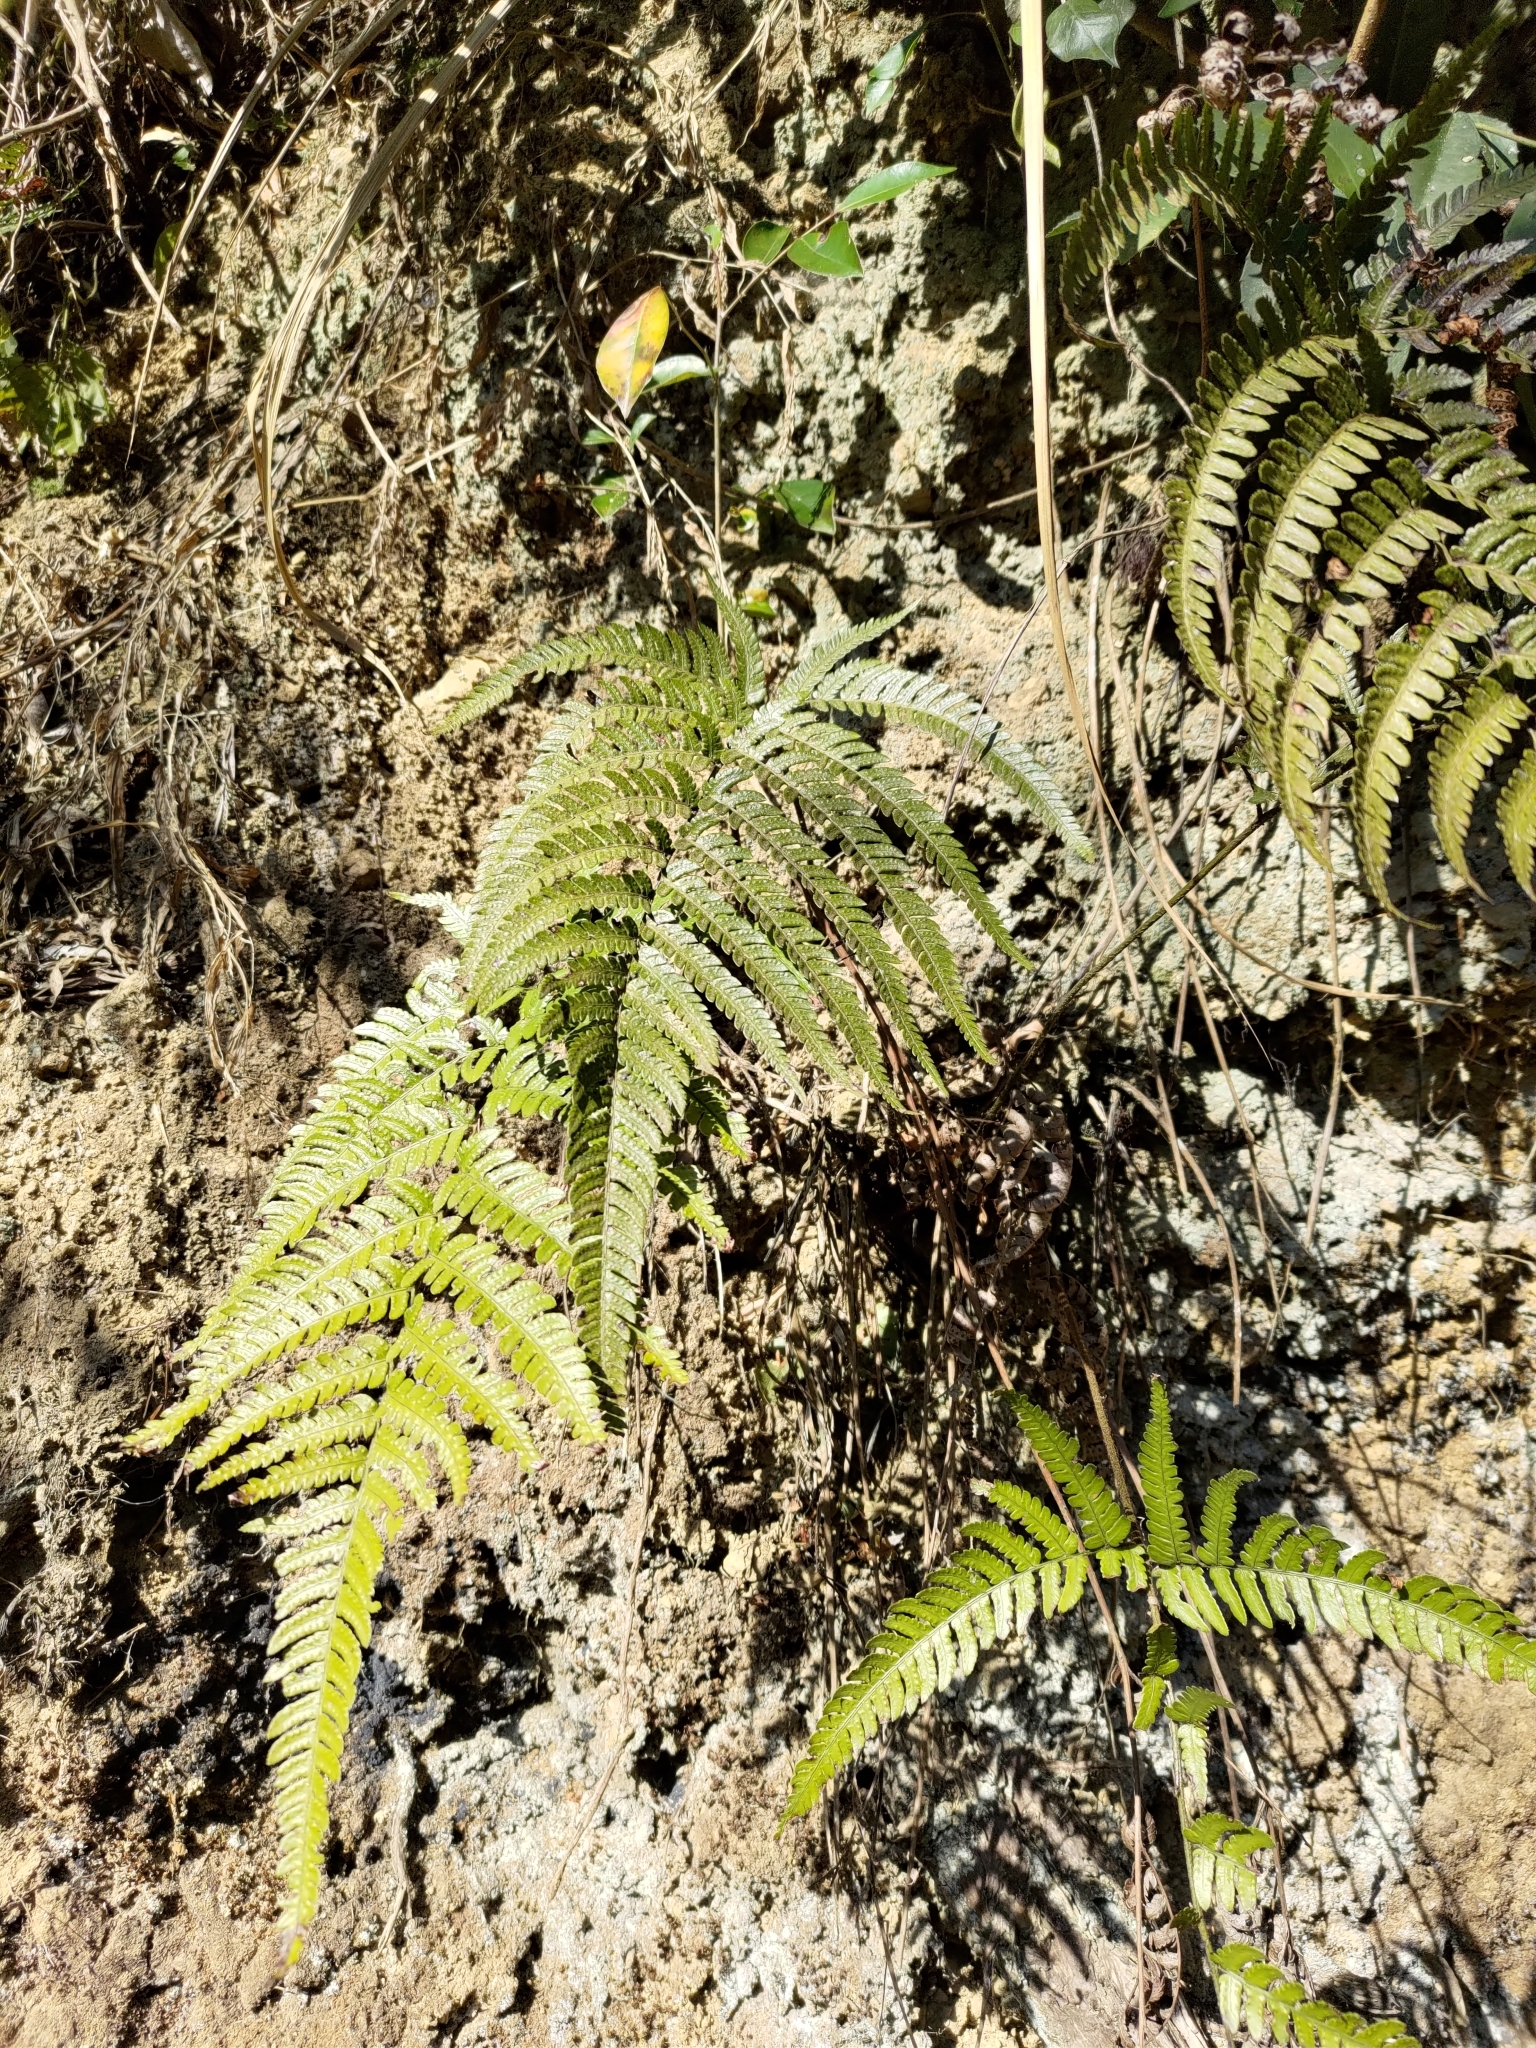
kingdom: Plantae
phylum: Tracheophyta
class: Polypodiopsida
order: Polypodiales
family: Dryopteridaceae
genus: Dryopteris
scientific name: Dryopteris varia
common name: Japanese holly fern
